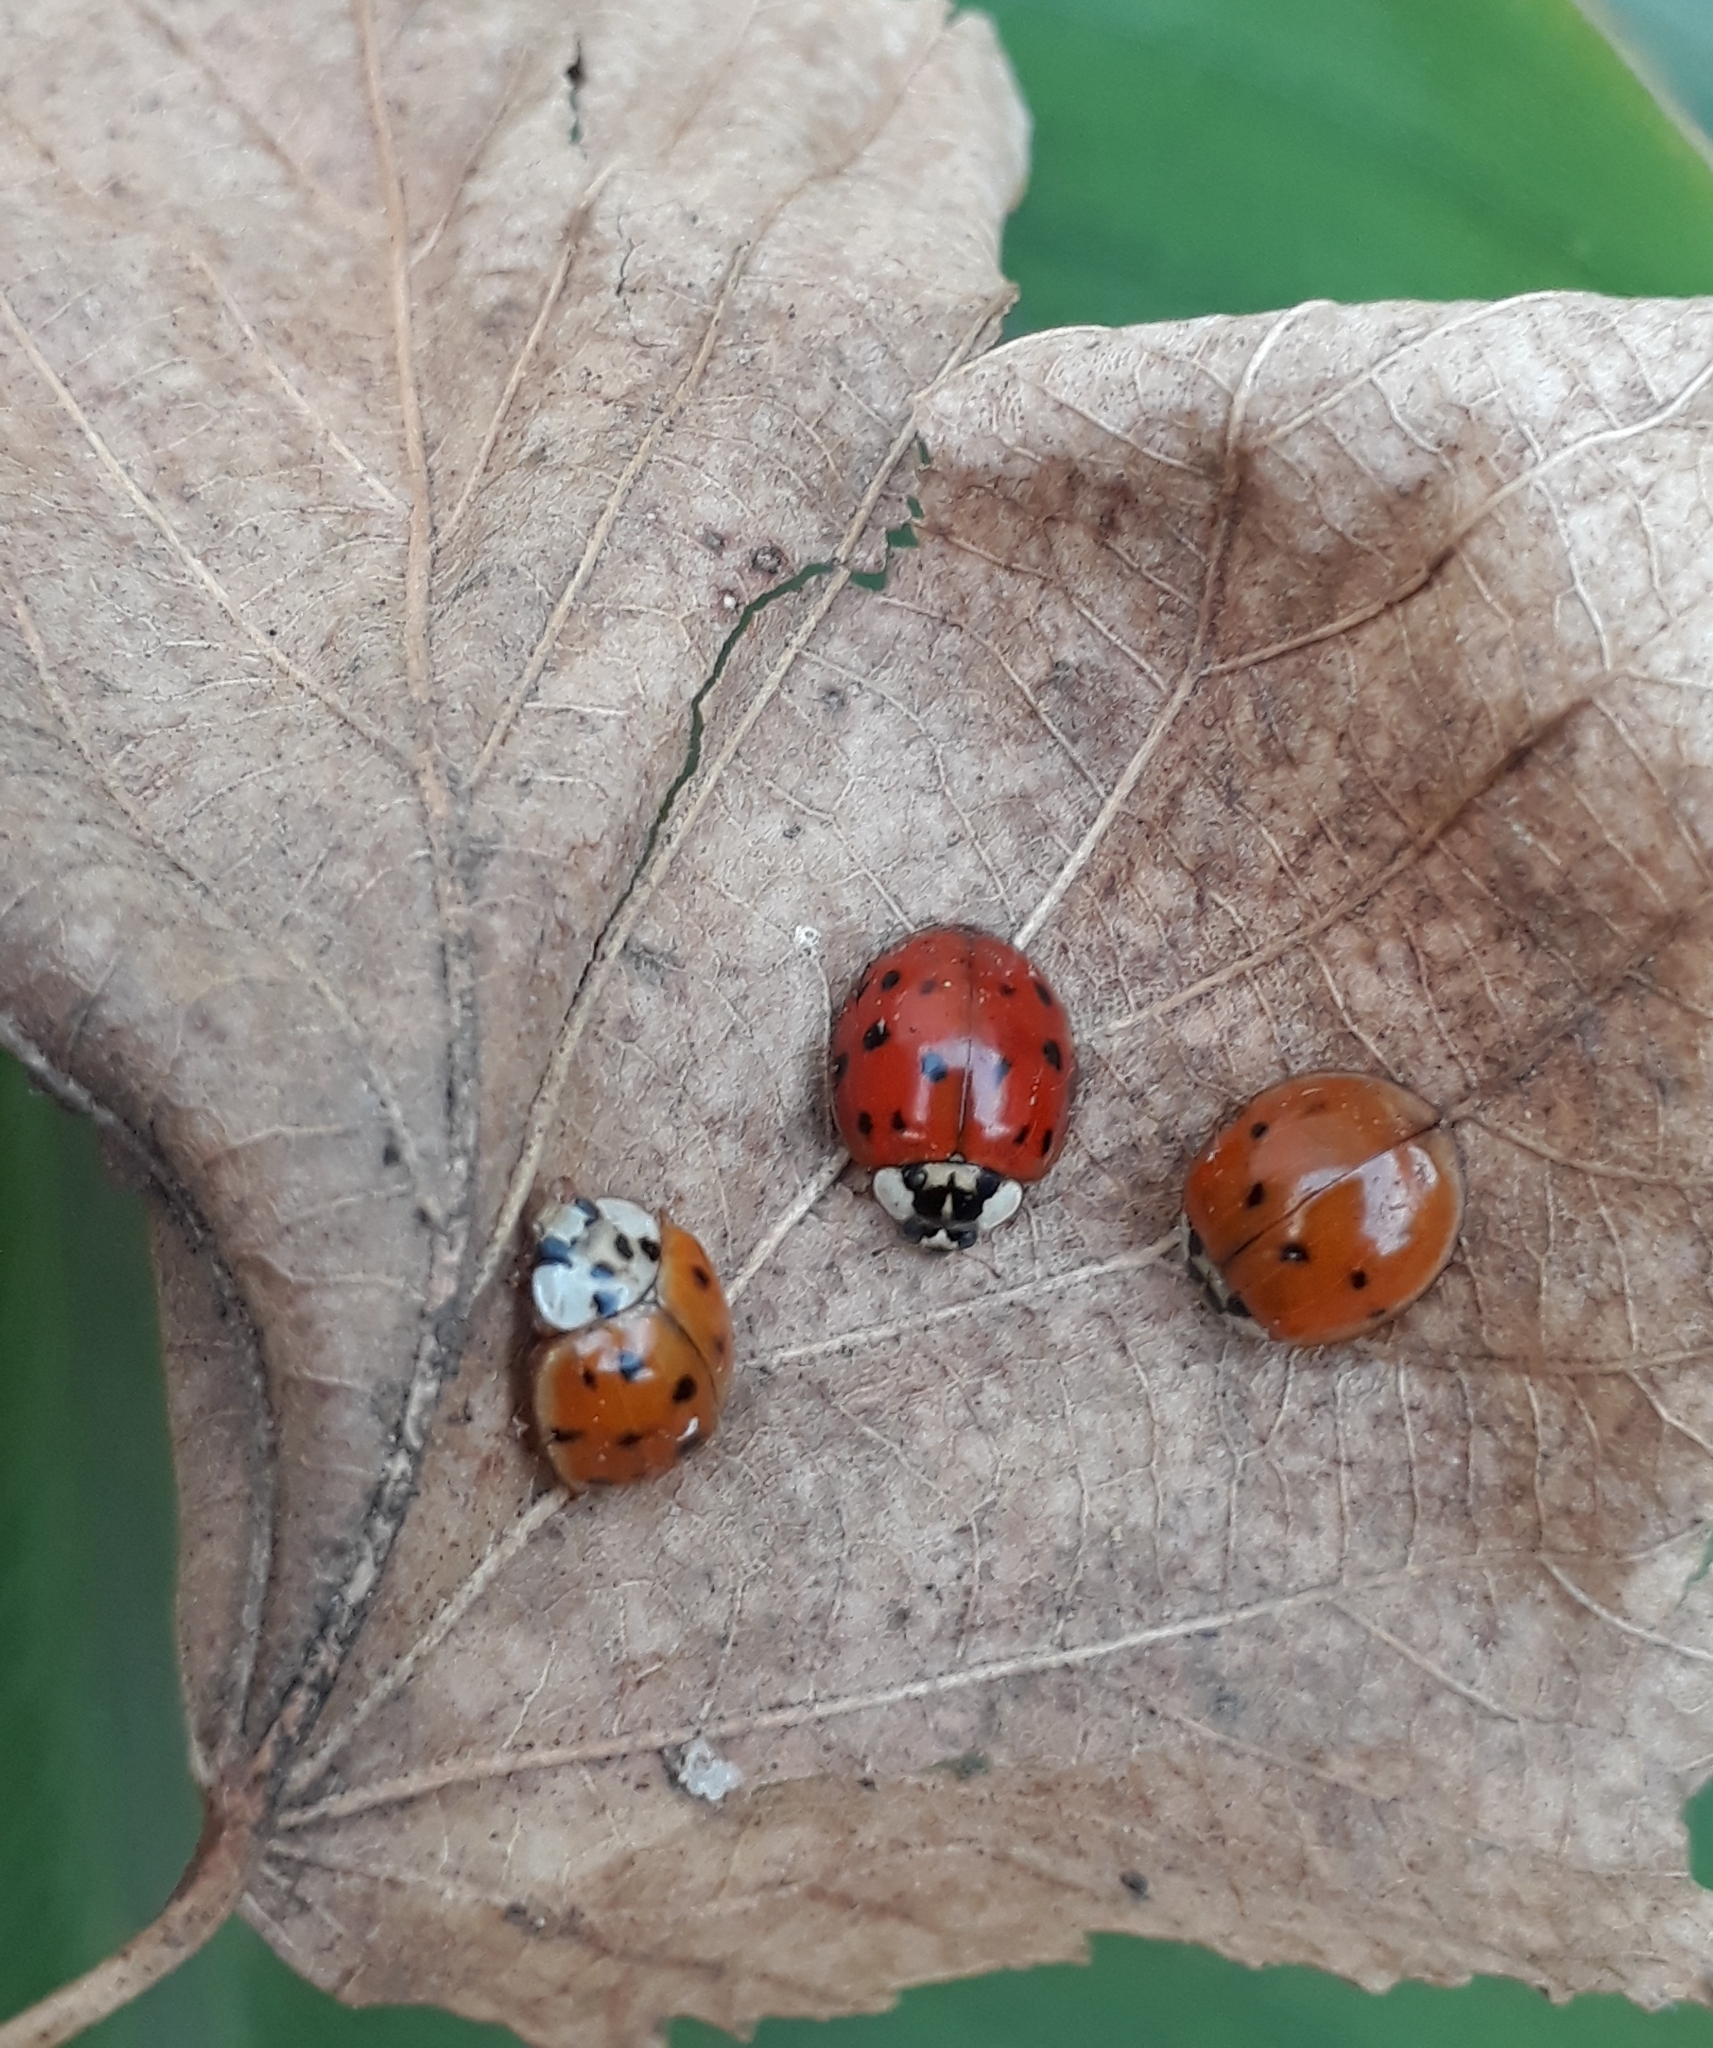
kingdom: Animalia
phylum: Arthropoda
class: Insecta
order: Coleoptera
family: Coccinellidae
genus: Harmonia
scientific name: Harmonia axyridis
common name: Harlequin ladybird
